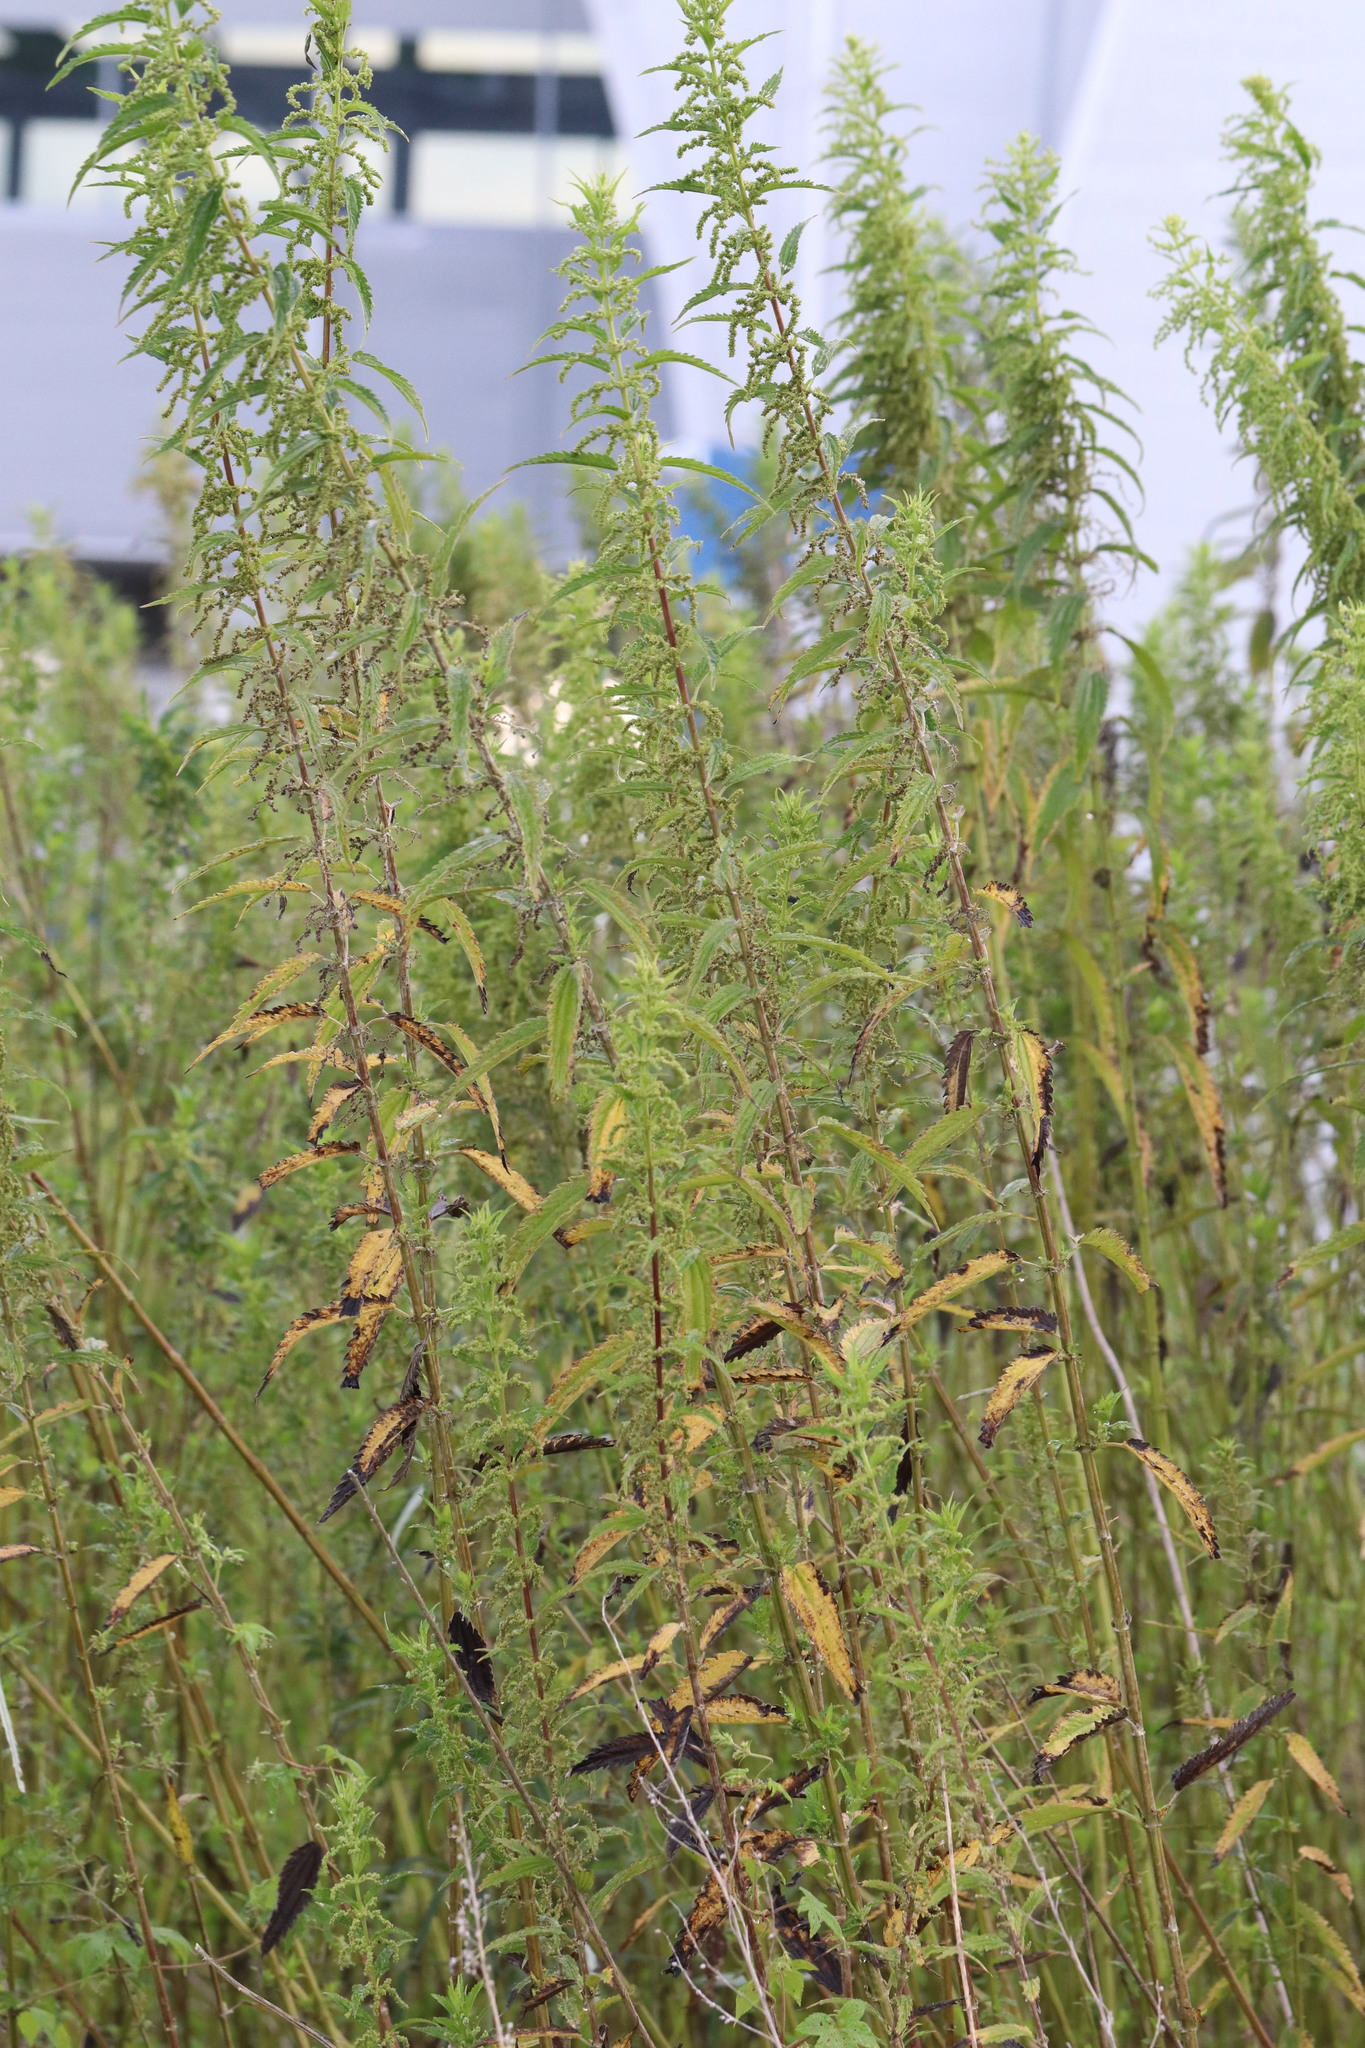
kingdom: Plantae
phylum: Tracheophyta
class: Magnoliopsida
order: Rosales
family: Urticaceae
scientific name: Urticaceae
